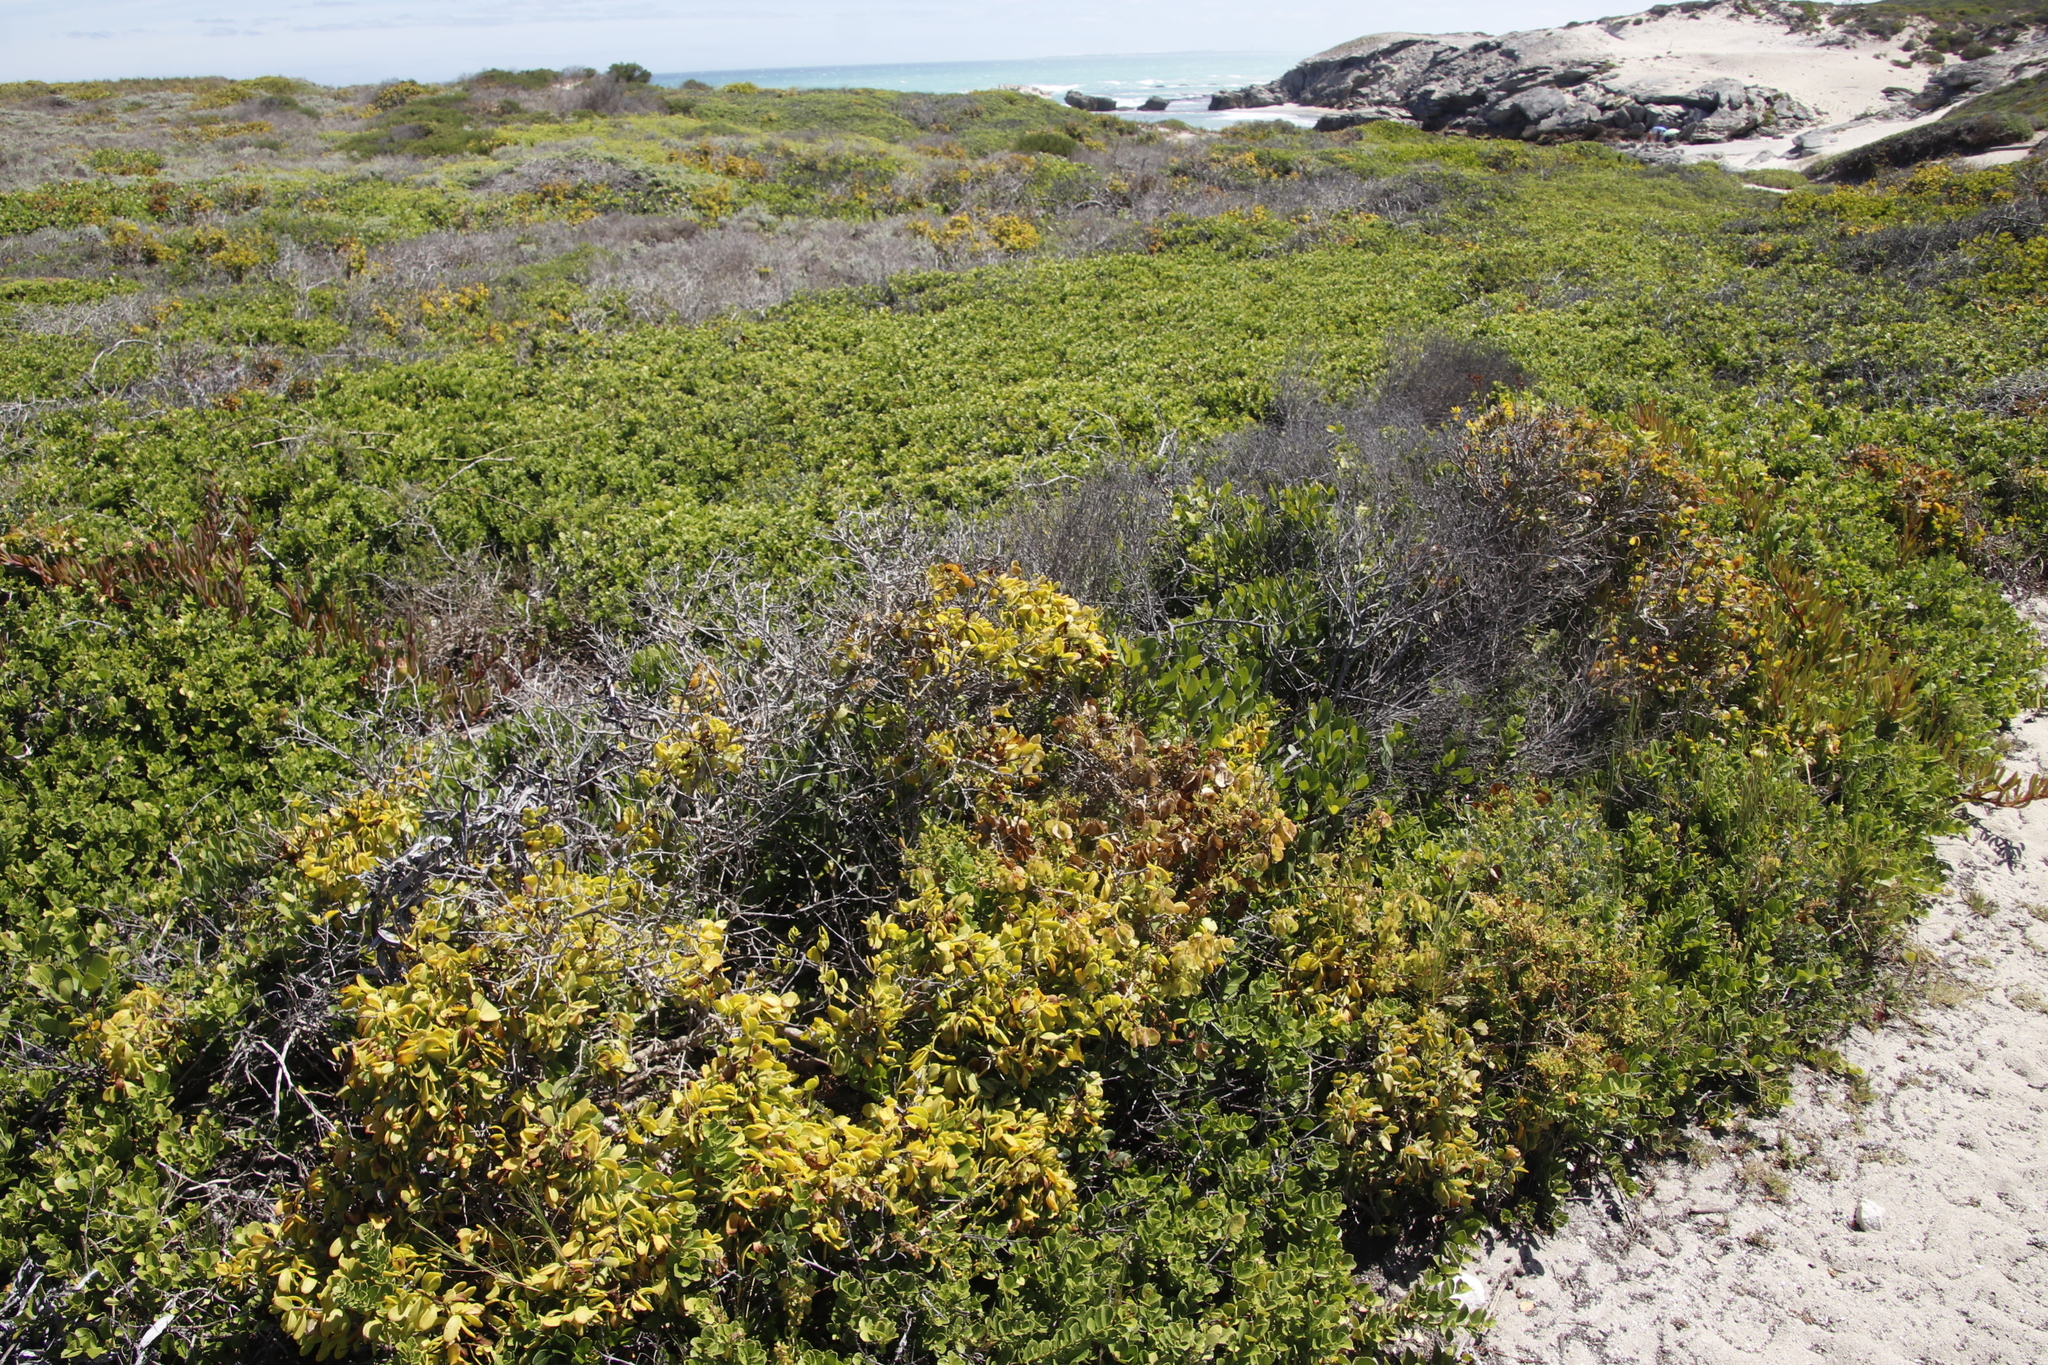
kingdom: Plantae
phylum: Tracheophyta
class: Magnoliopsida
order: Zygophyllales
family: Zygophyllaceae
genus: Roepera
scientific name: Roepera morgsana
